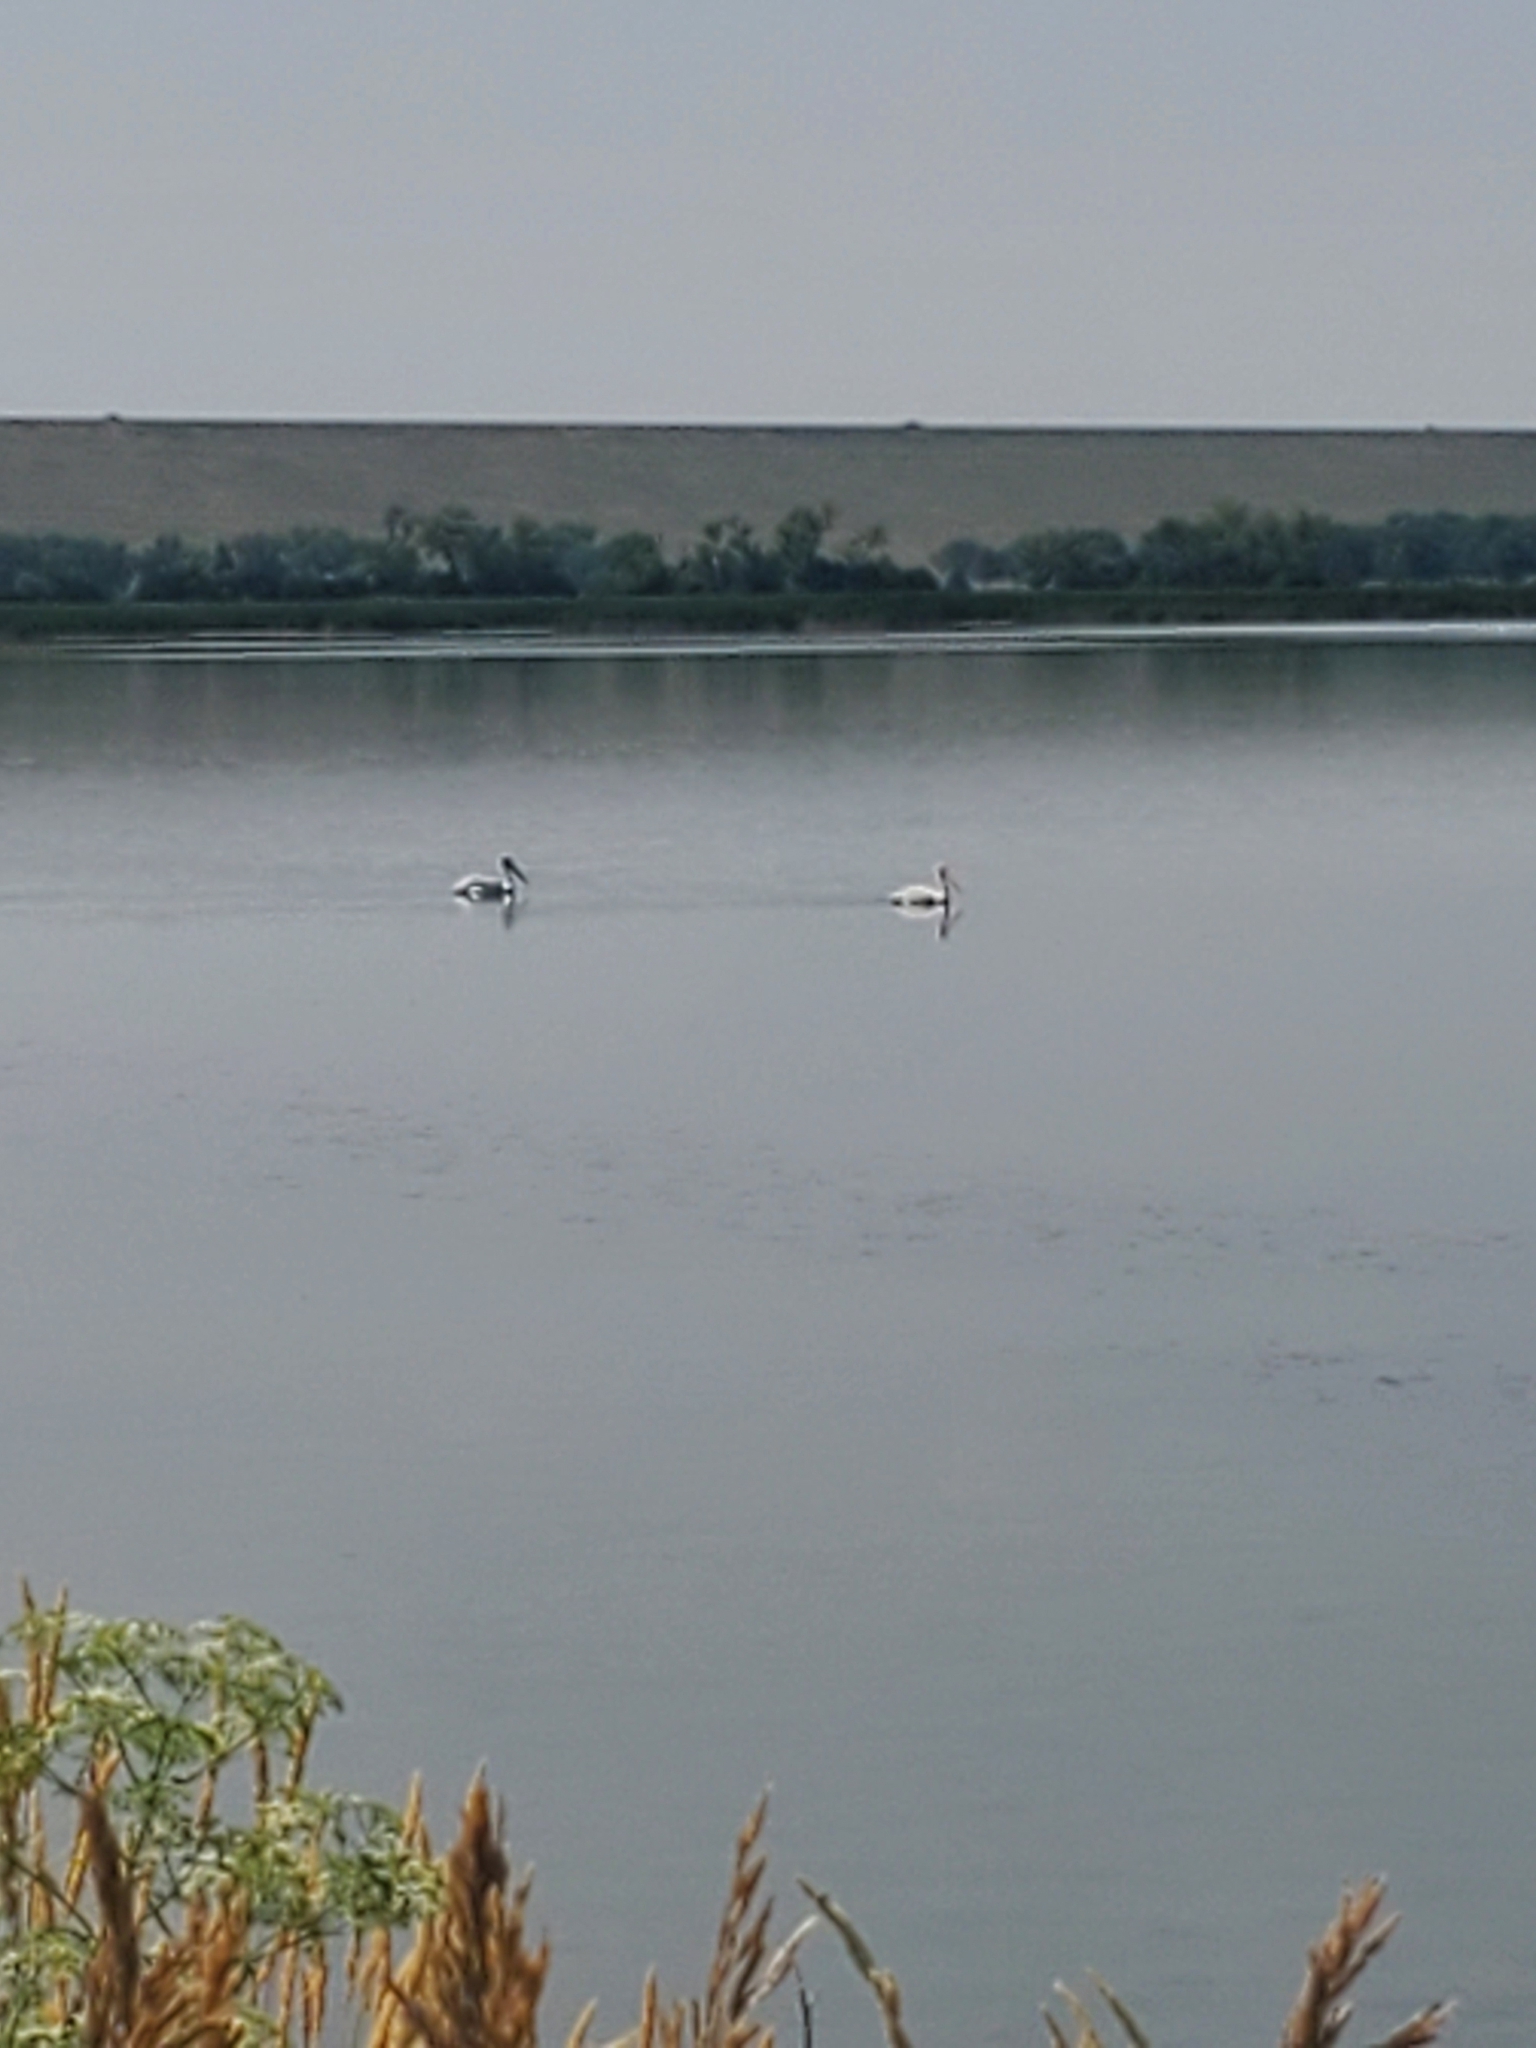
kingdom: Animalia
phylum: Chordata
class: Aves
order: Pelecaniformes
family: Pelecanidae
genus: Pelecanus
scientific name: Pelecanus erythrorhynchos
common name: American white pelican
